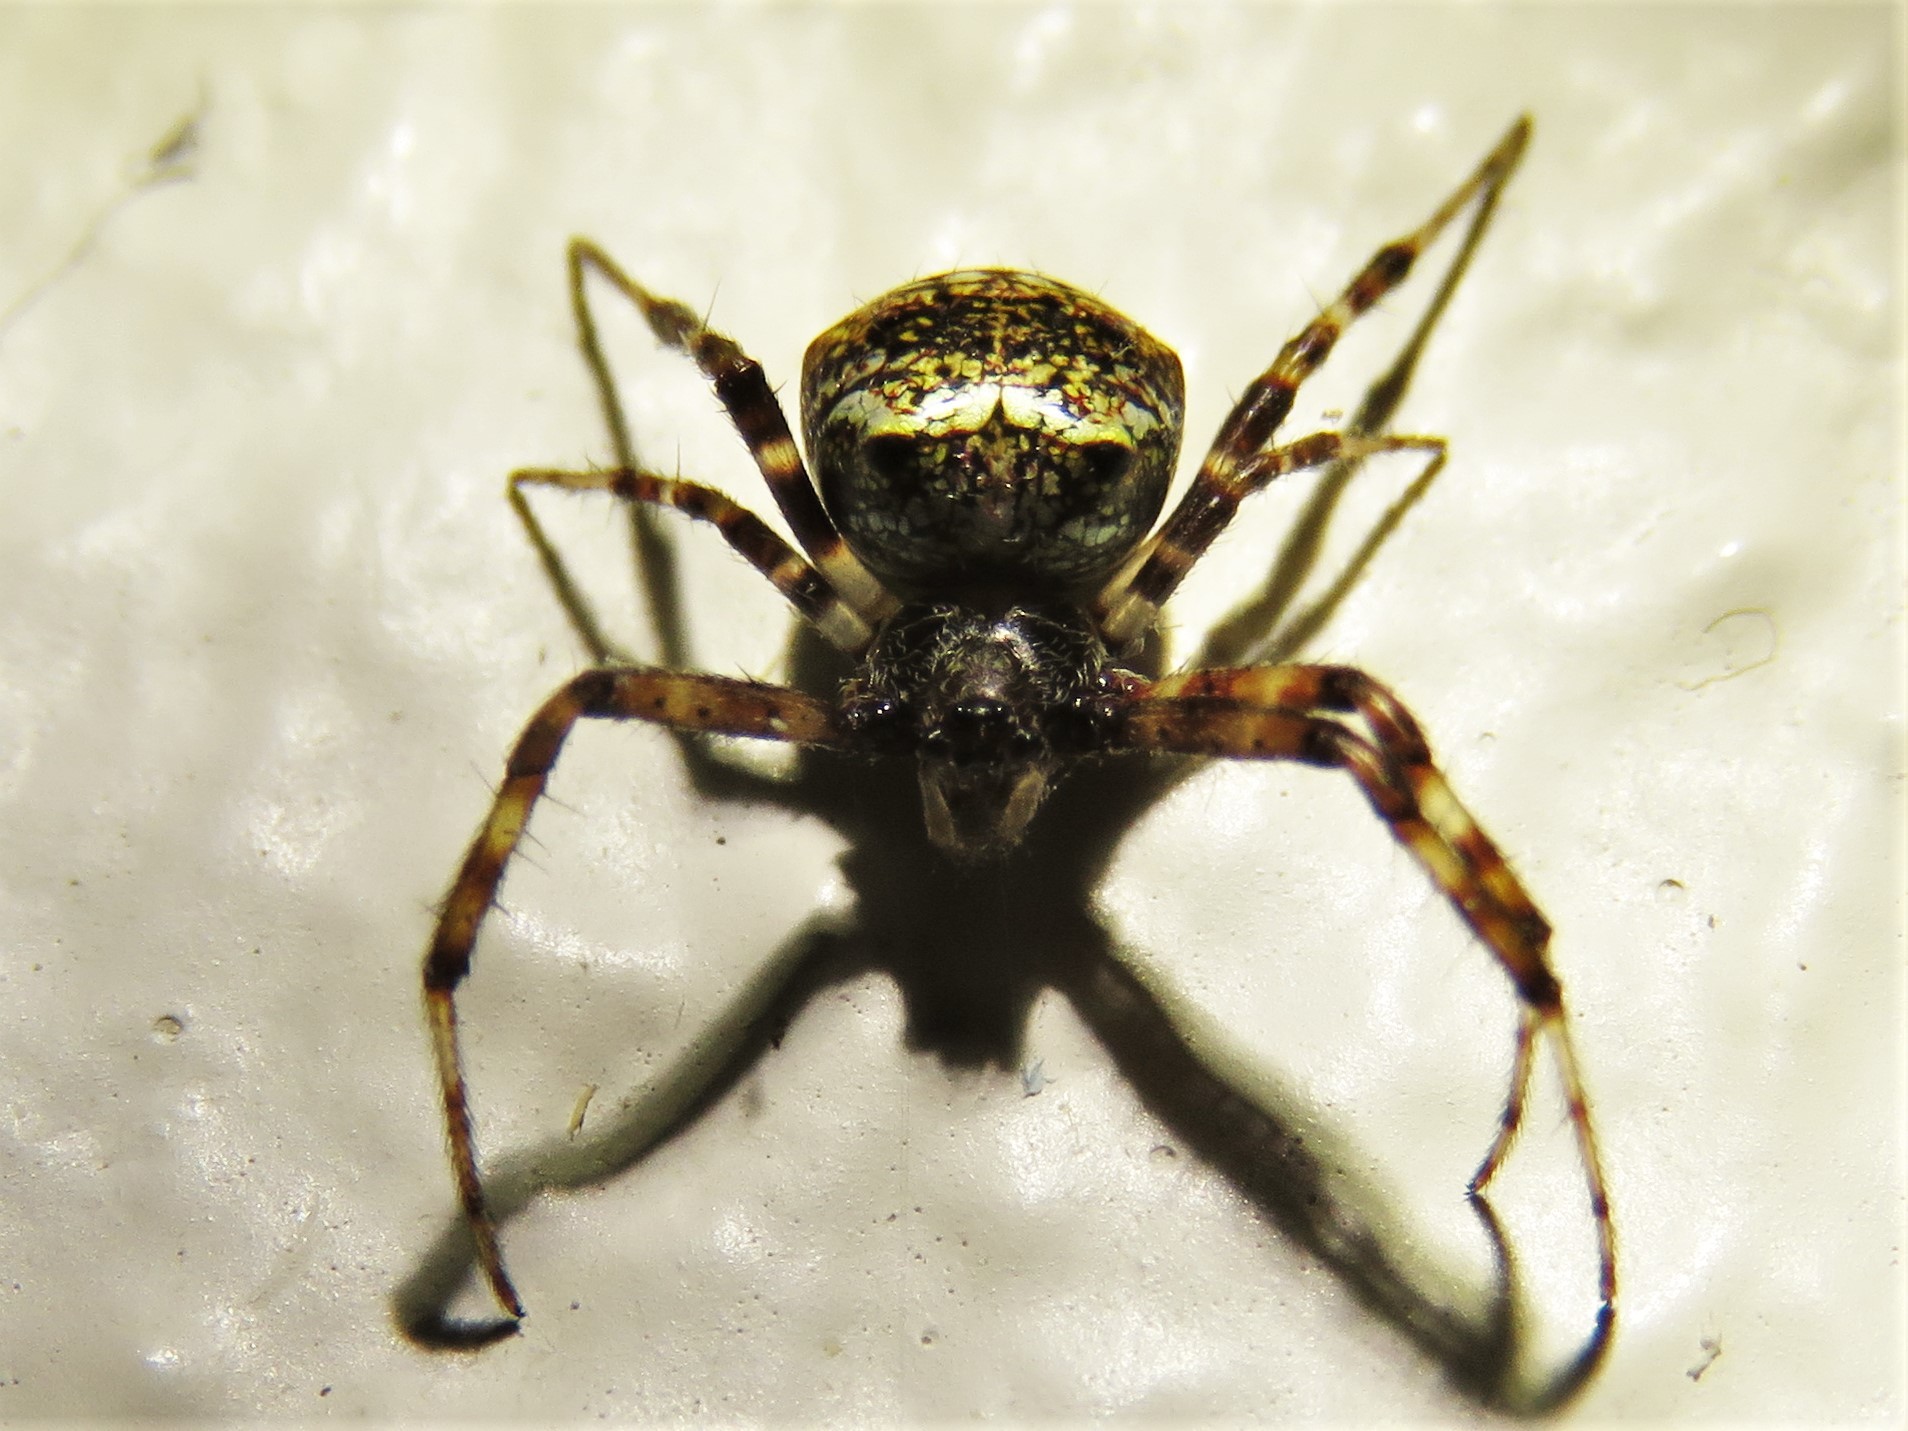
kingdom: Animalia
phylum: Arthropoda
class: Arachnida
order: Araneae
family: Araneidae
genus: Gea
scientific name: Gea heptagon
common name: Orb weavers
